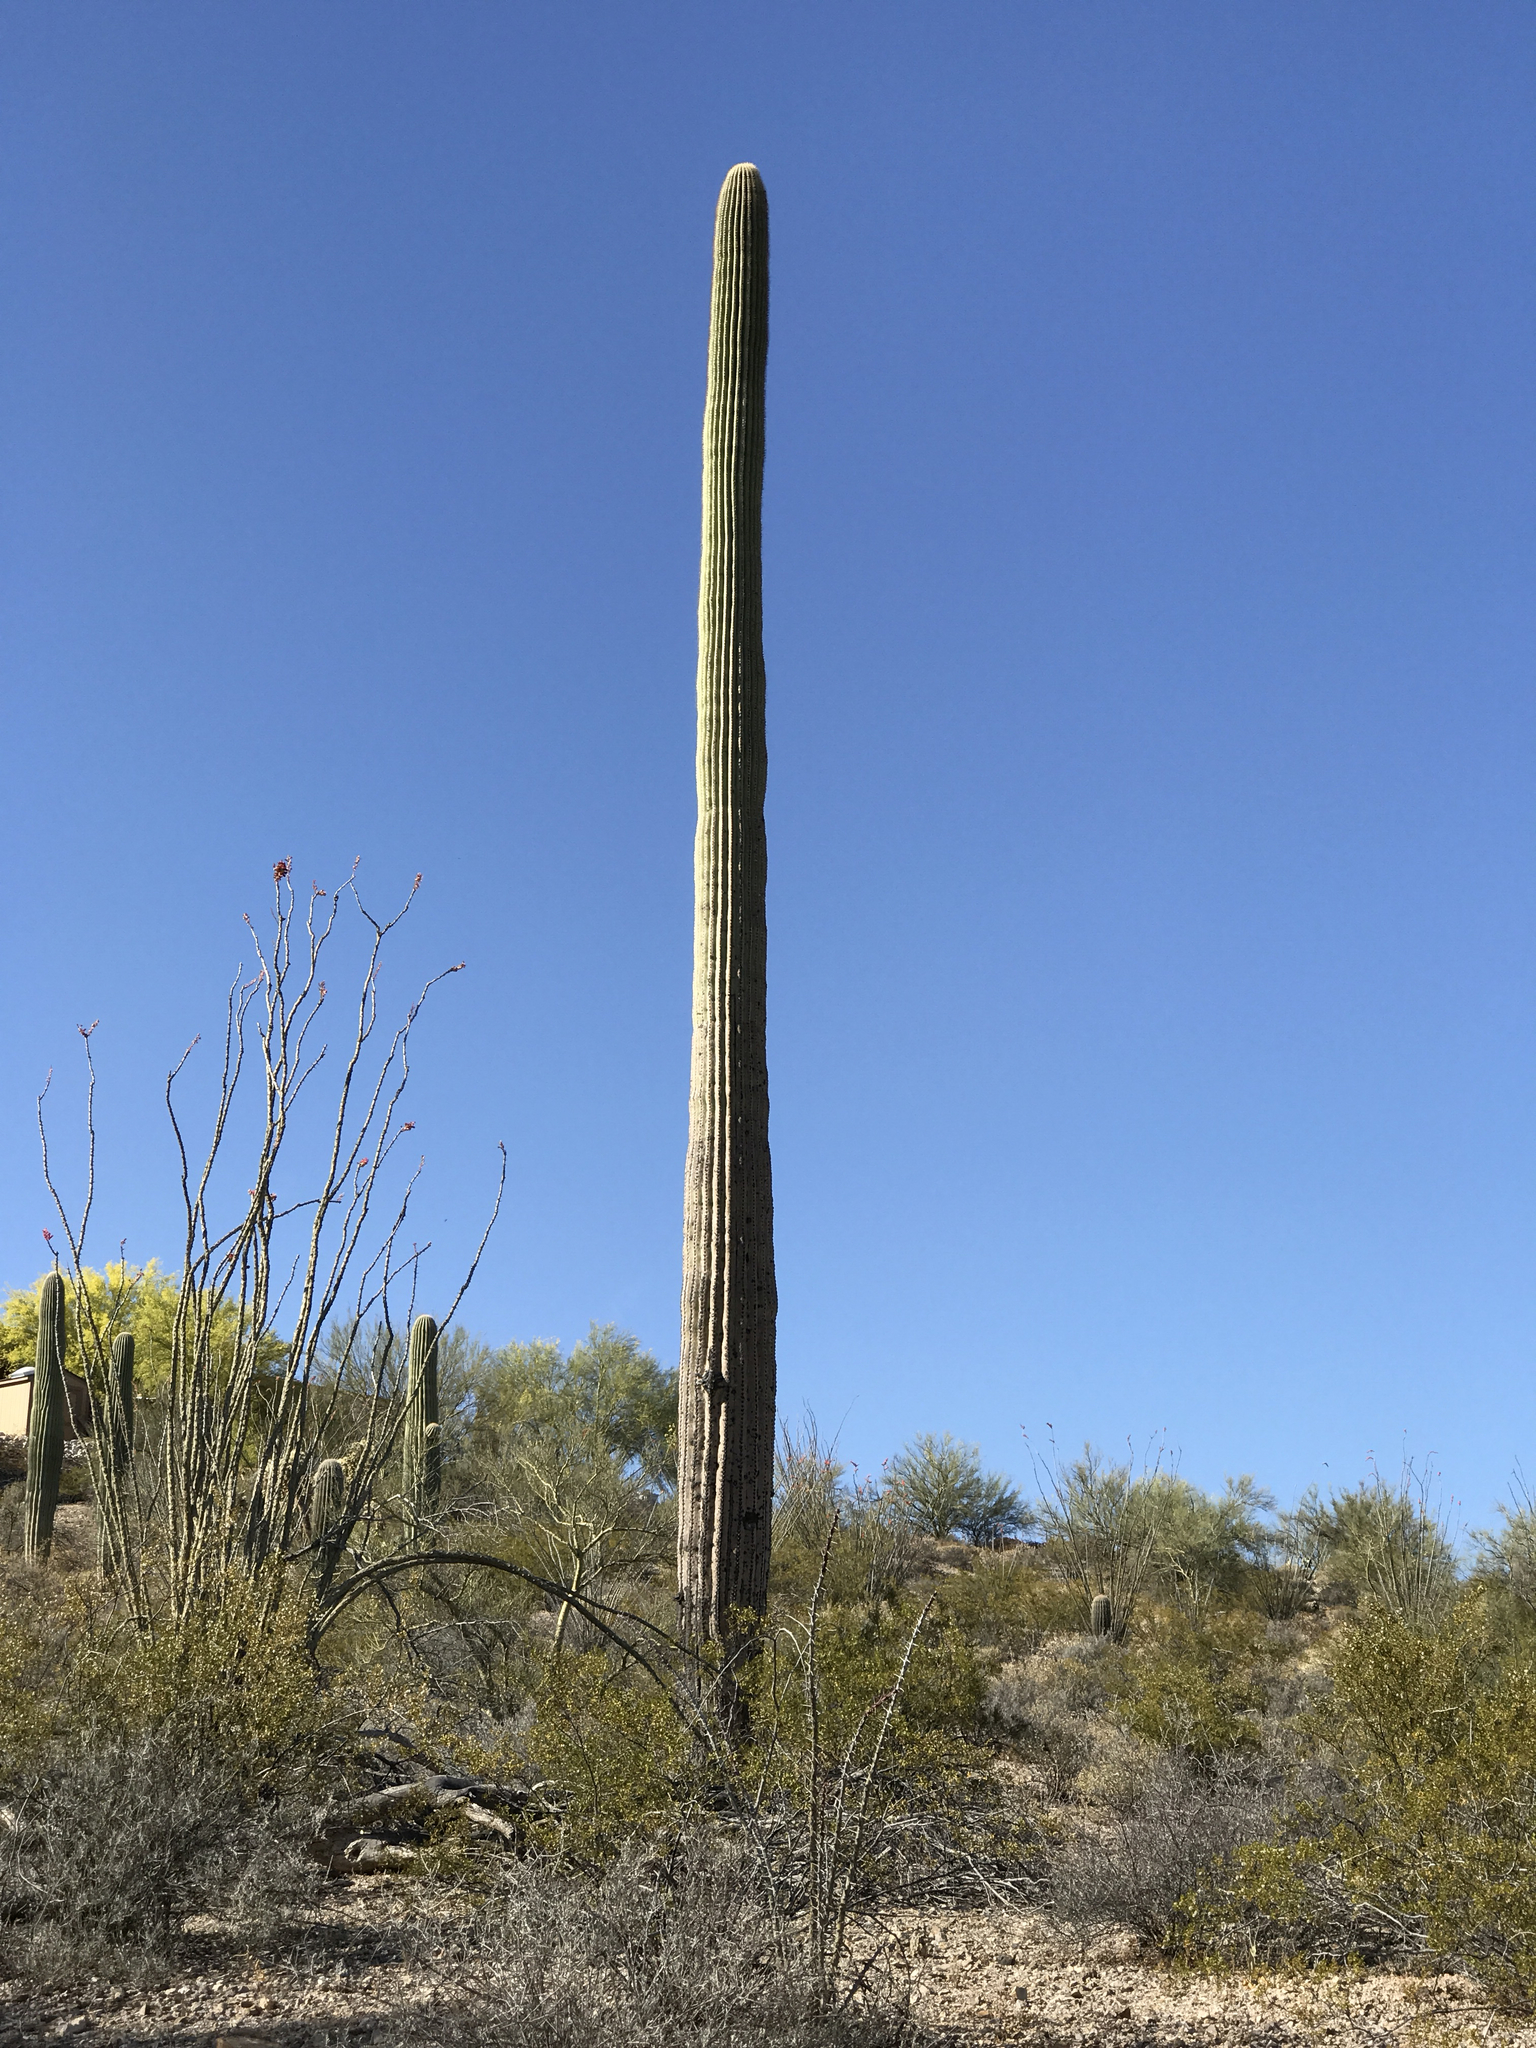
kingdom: Plantae
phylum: Tracheophyta
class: Magnoliopsida
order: Caryophyllales
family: Cactaceae
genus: Carnegiea
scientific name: Carnegiea gigantea
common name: Saguaro
